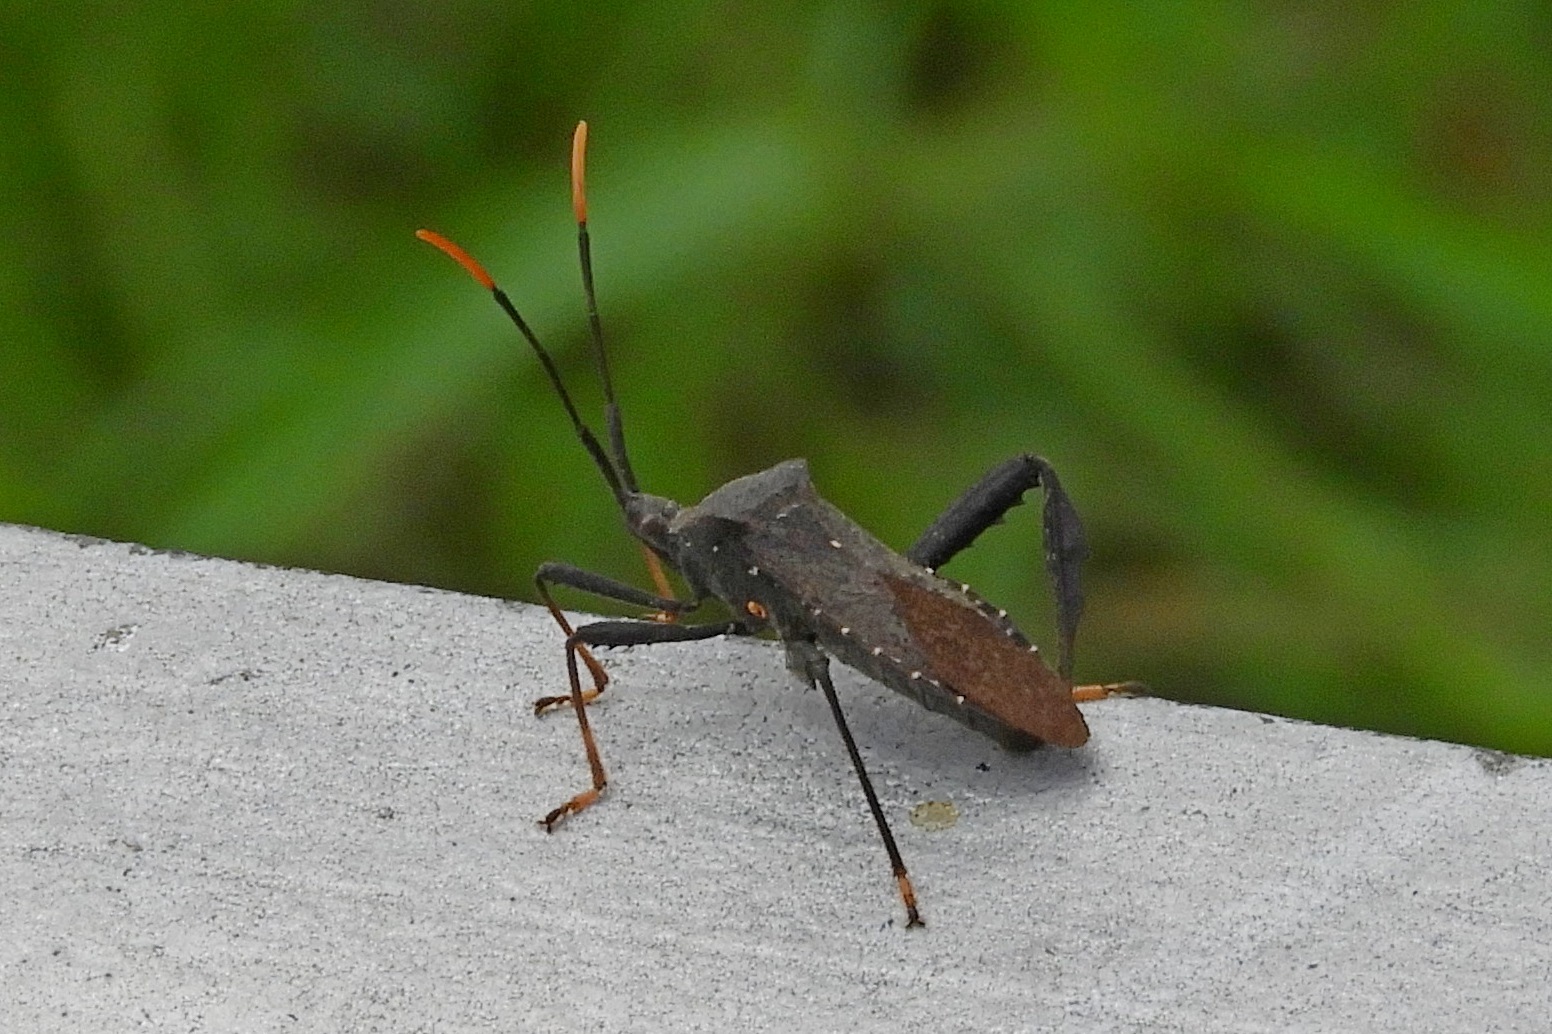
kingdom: Animalia
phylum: Arthropoda
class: Insecta
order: Hemiptera
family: Coreidae
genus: Acanthocephala
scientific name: Acanthocephala terminalis
